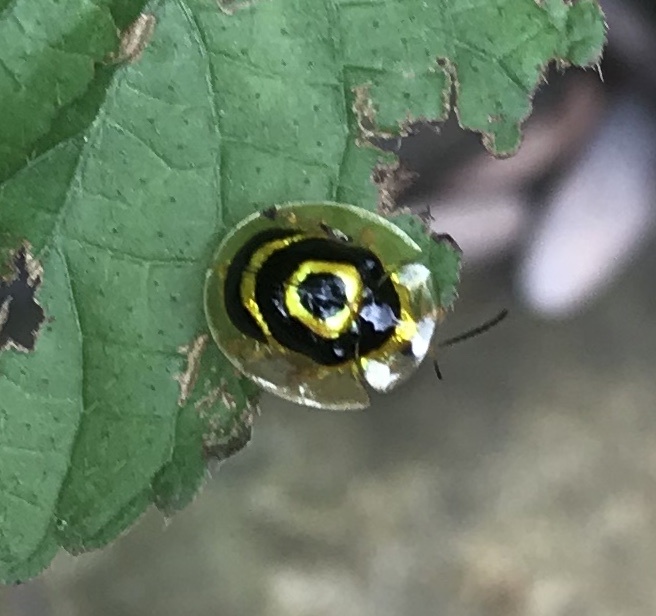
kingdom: Animalia
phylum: Arthropoda
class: Insecta
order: Coleoptera
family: Chrysomelidae
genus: Ischnocodia
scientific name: Ischnocodia annulus
